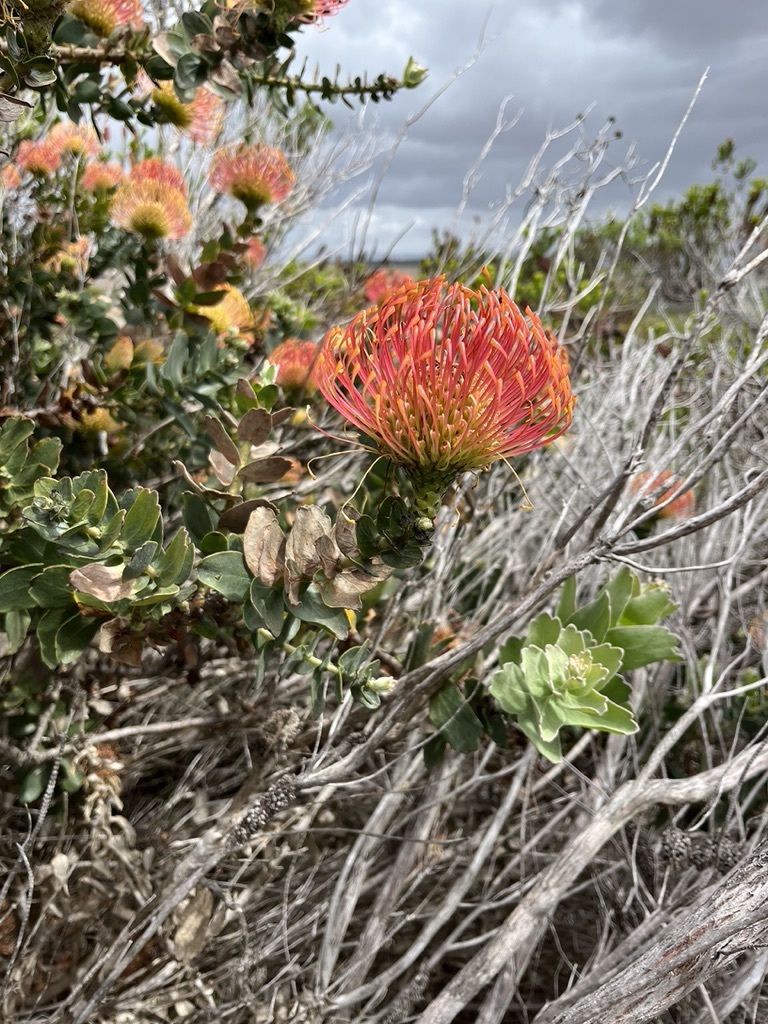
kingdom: Plantae
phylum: Tracheophyta
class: Magnoliopsida
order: Proteales
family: Proteaceae
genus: Leucospermum
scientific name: Leucospermum cordifolium
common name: Red pincushion-protea
